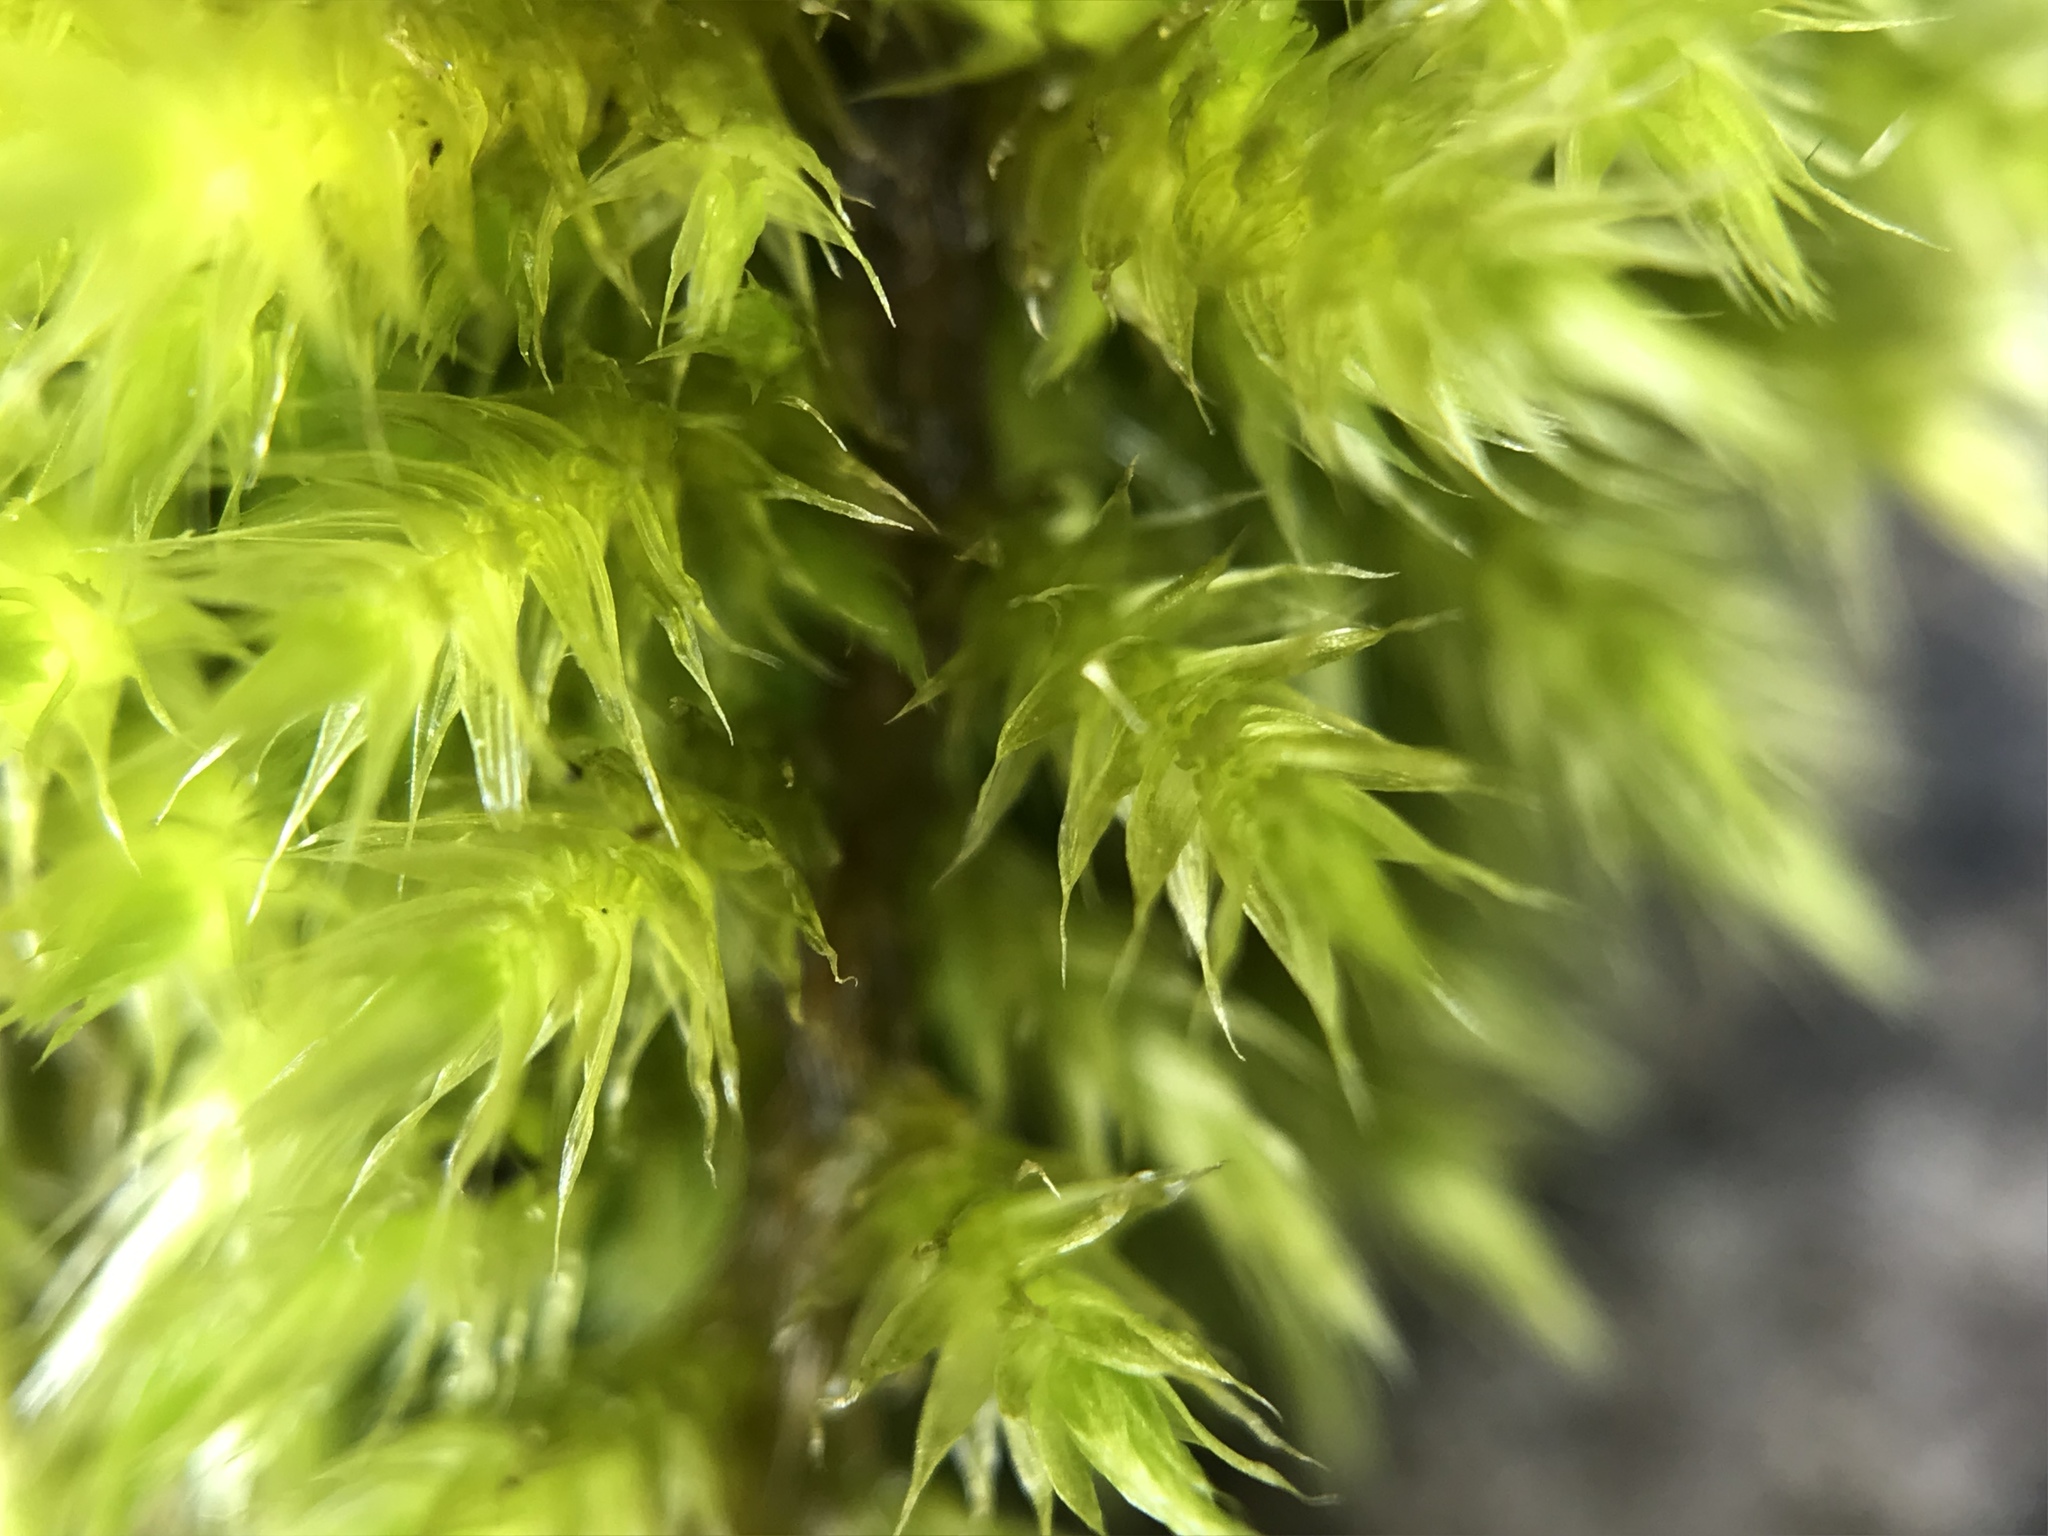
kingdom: Plantae
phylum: Bryophyta
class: Bryopsida
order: Hypnales
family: Brachytheciaceae
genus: Homalothecium
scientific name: Homalothecium sericeum
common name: Silky wall feather-moss
